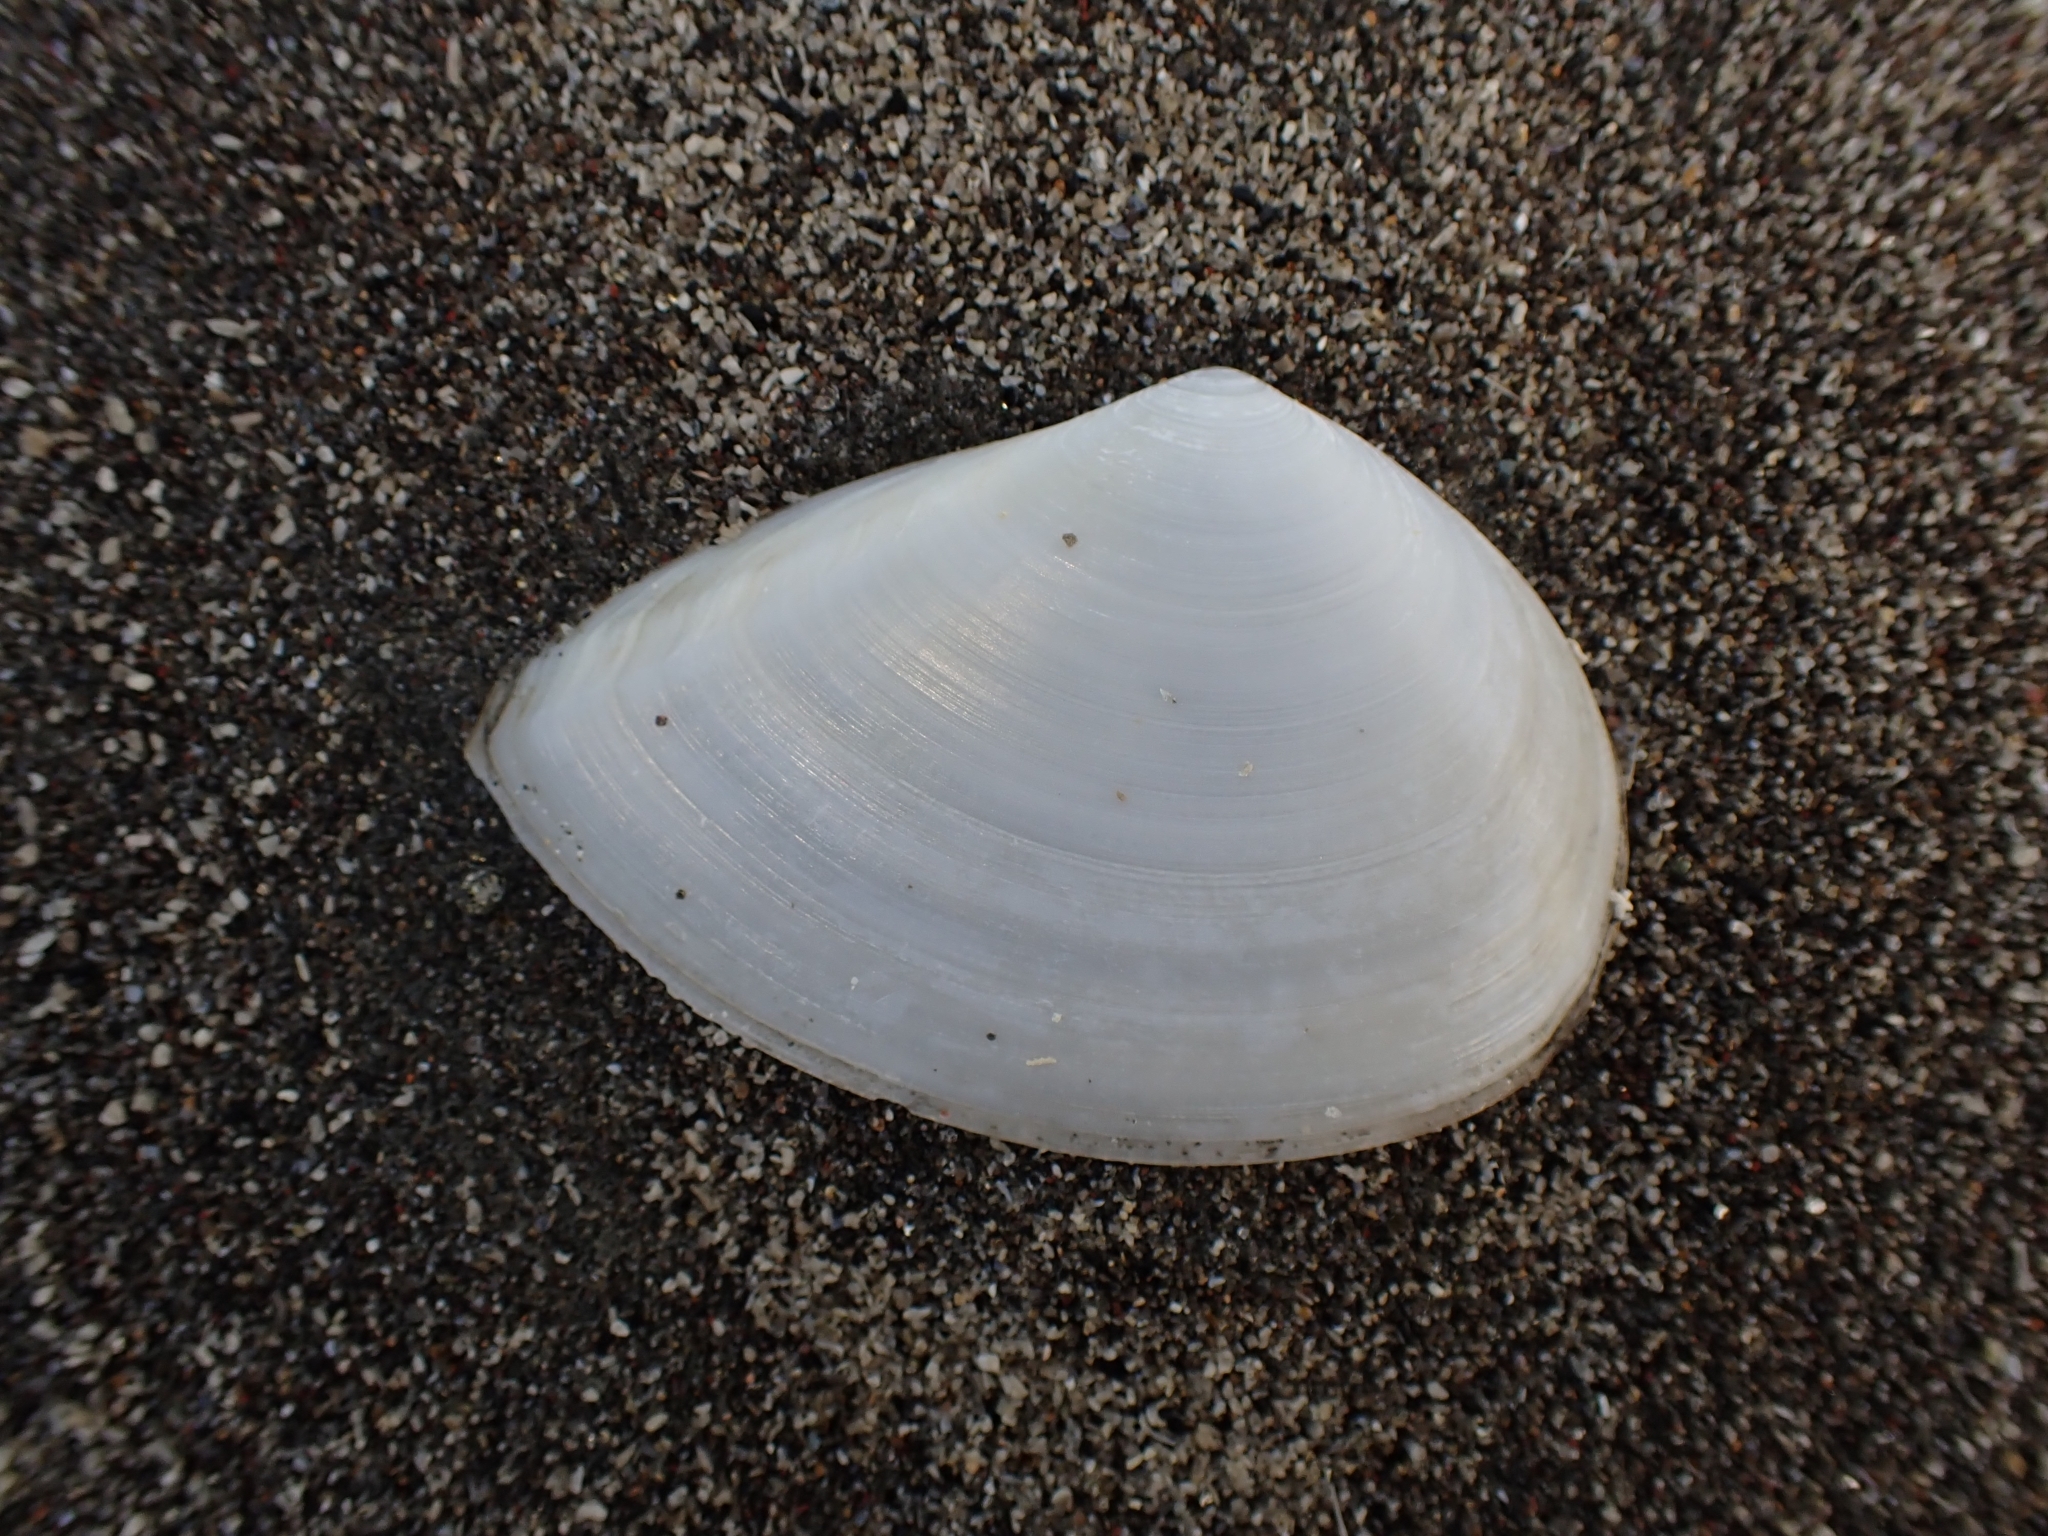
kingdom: Animalia
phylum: Mollusca
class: Bivalvia
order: Cardiida
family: Tellinidae
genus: Bartschicoma
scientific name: Bartschicoma gaimardi
